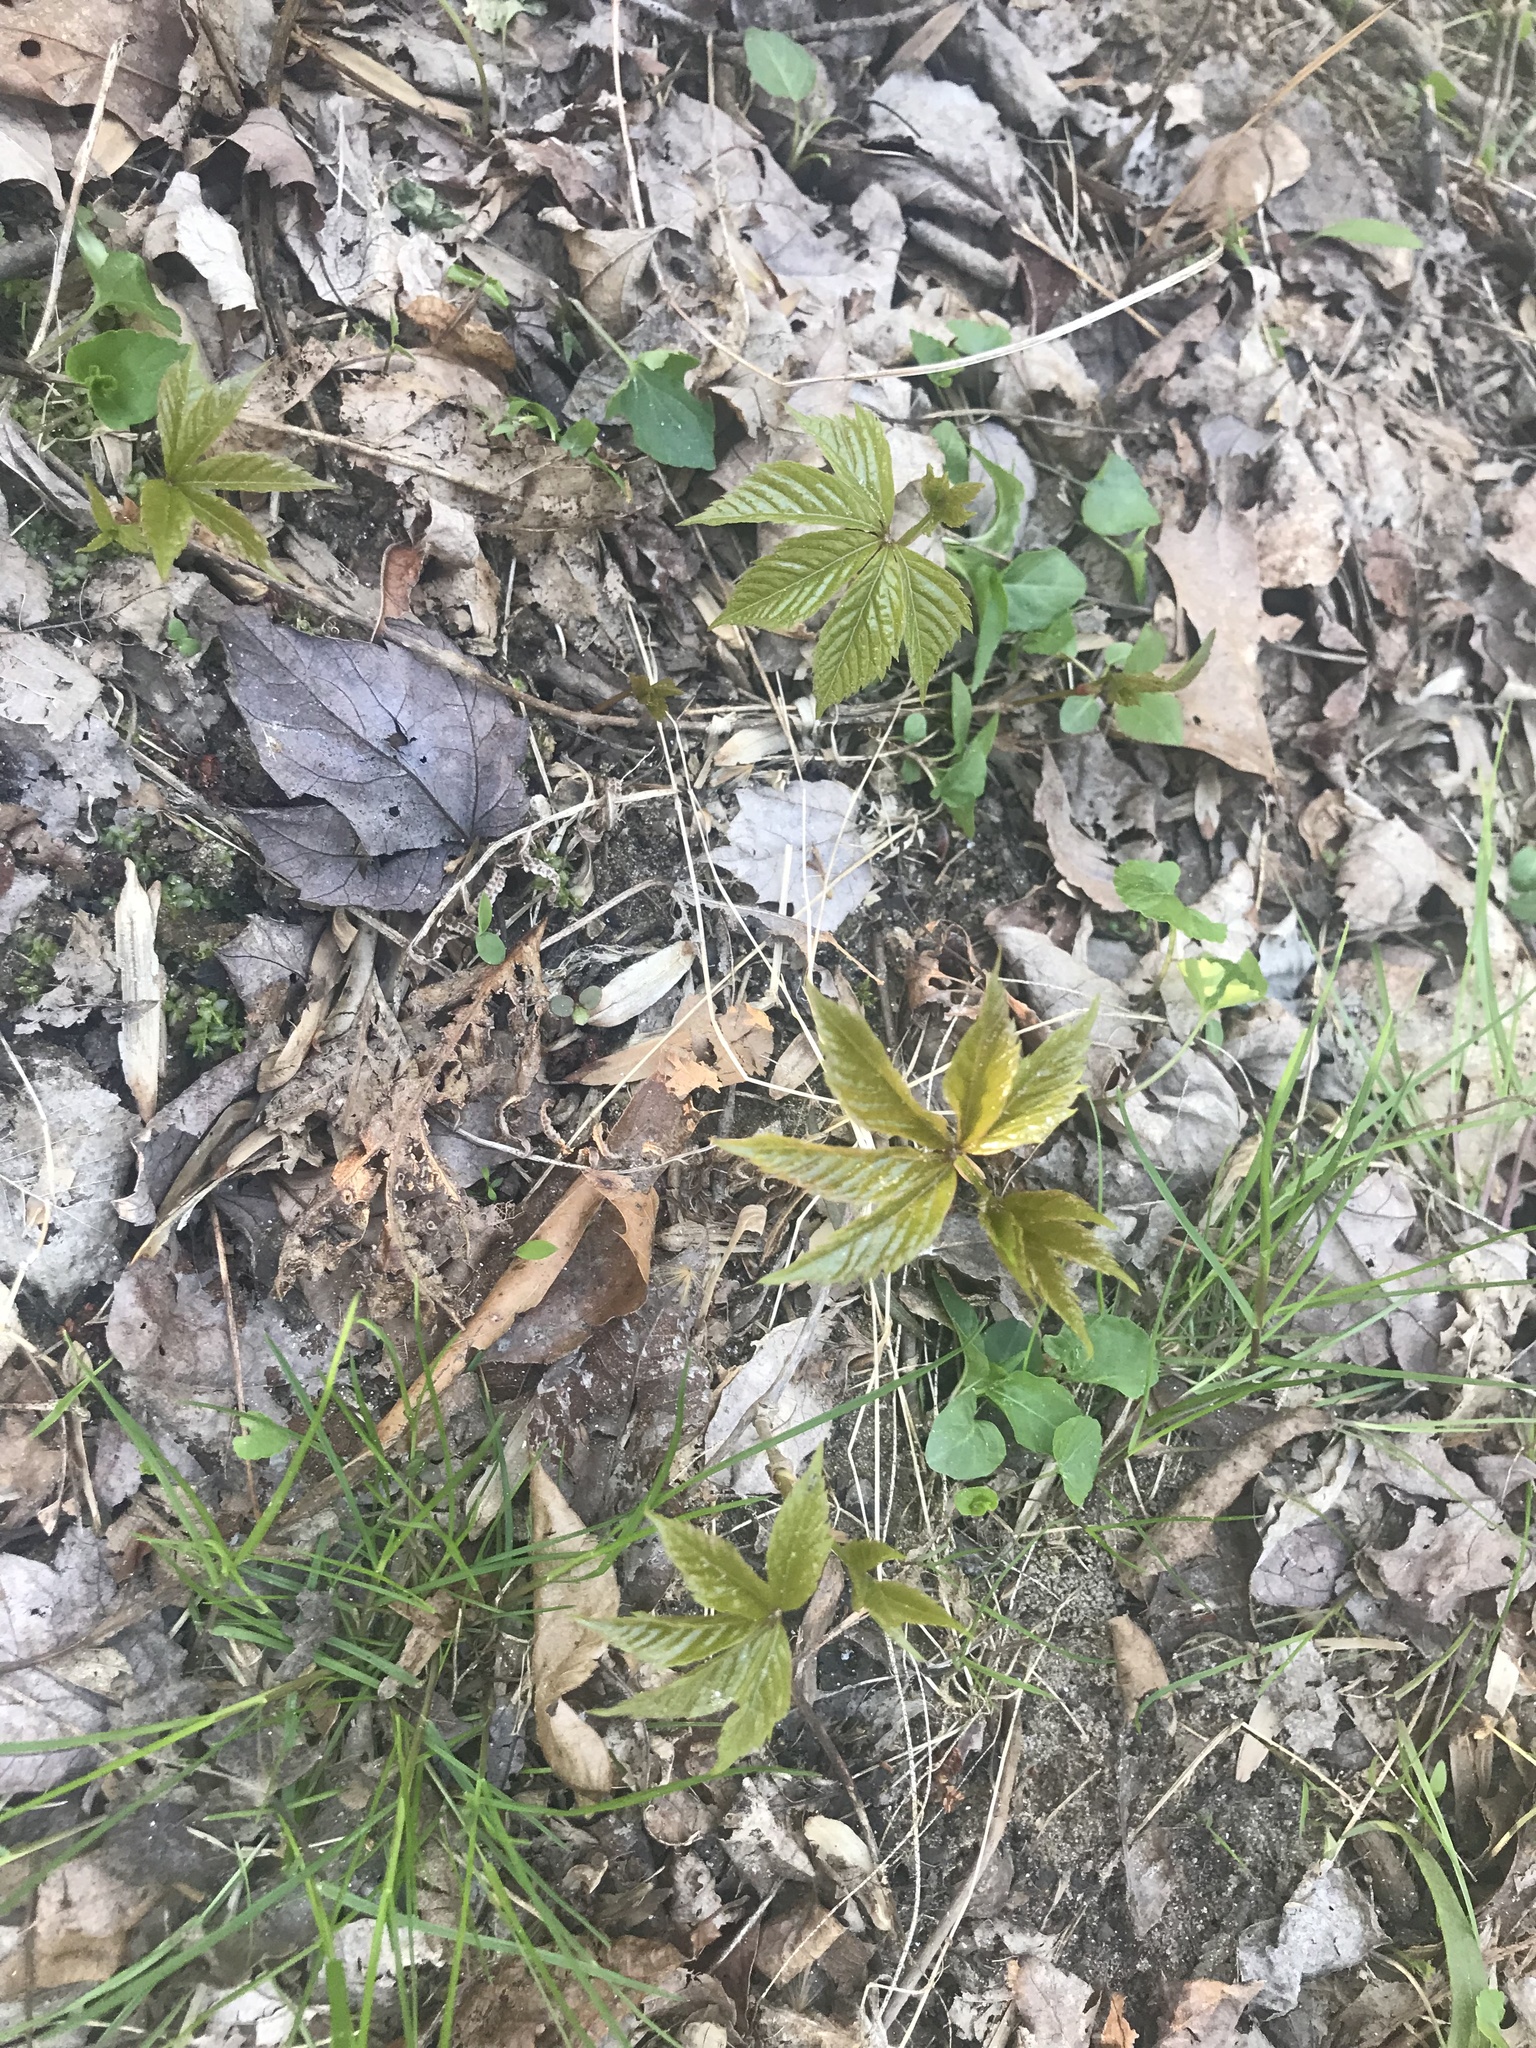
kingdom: Plantae
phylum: Tracheophyta
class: Magnoliopsida
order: Vitales
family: Vitaceae
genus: Parthenocissus
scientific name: Parthenocissus quinquefolia
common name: Virginia-creeper
